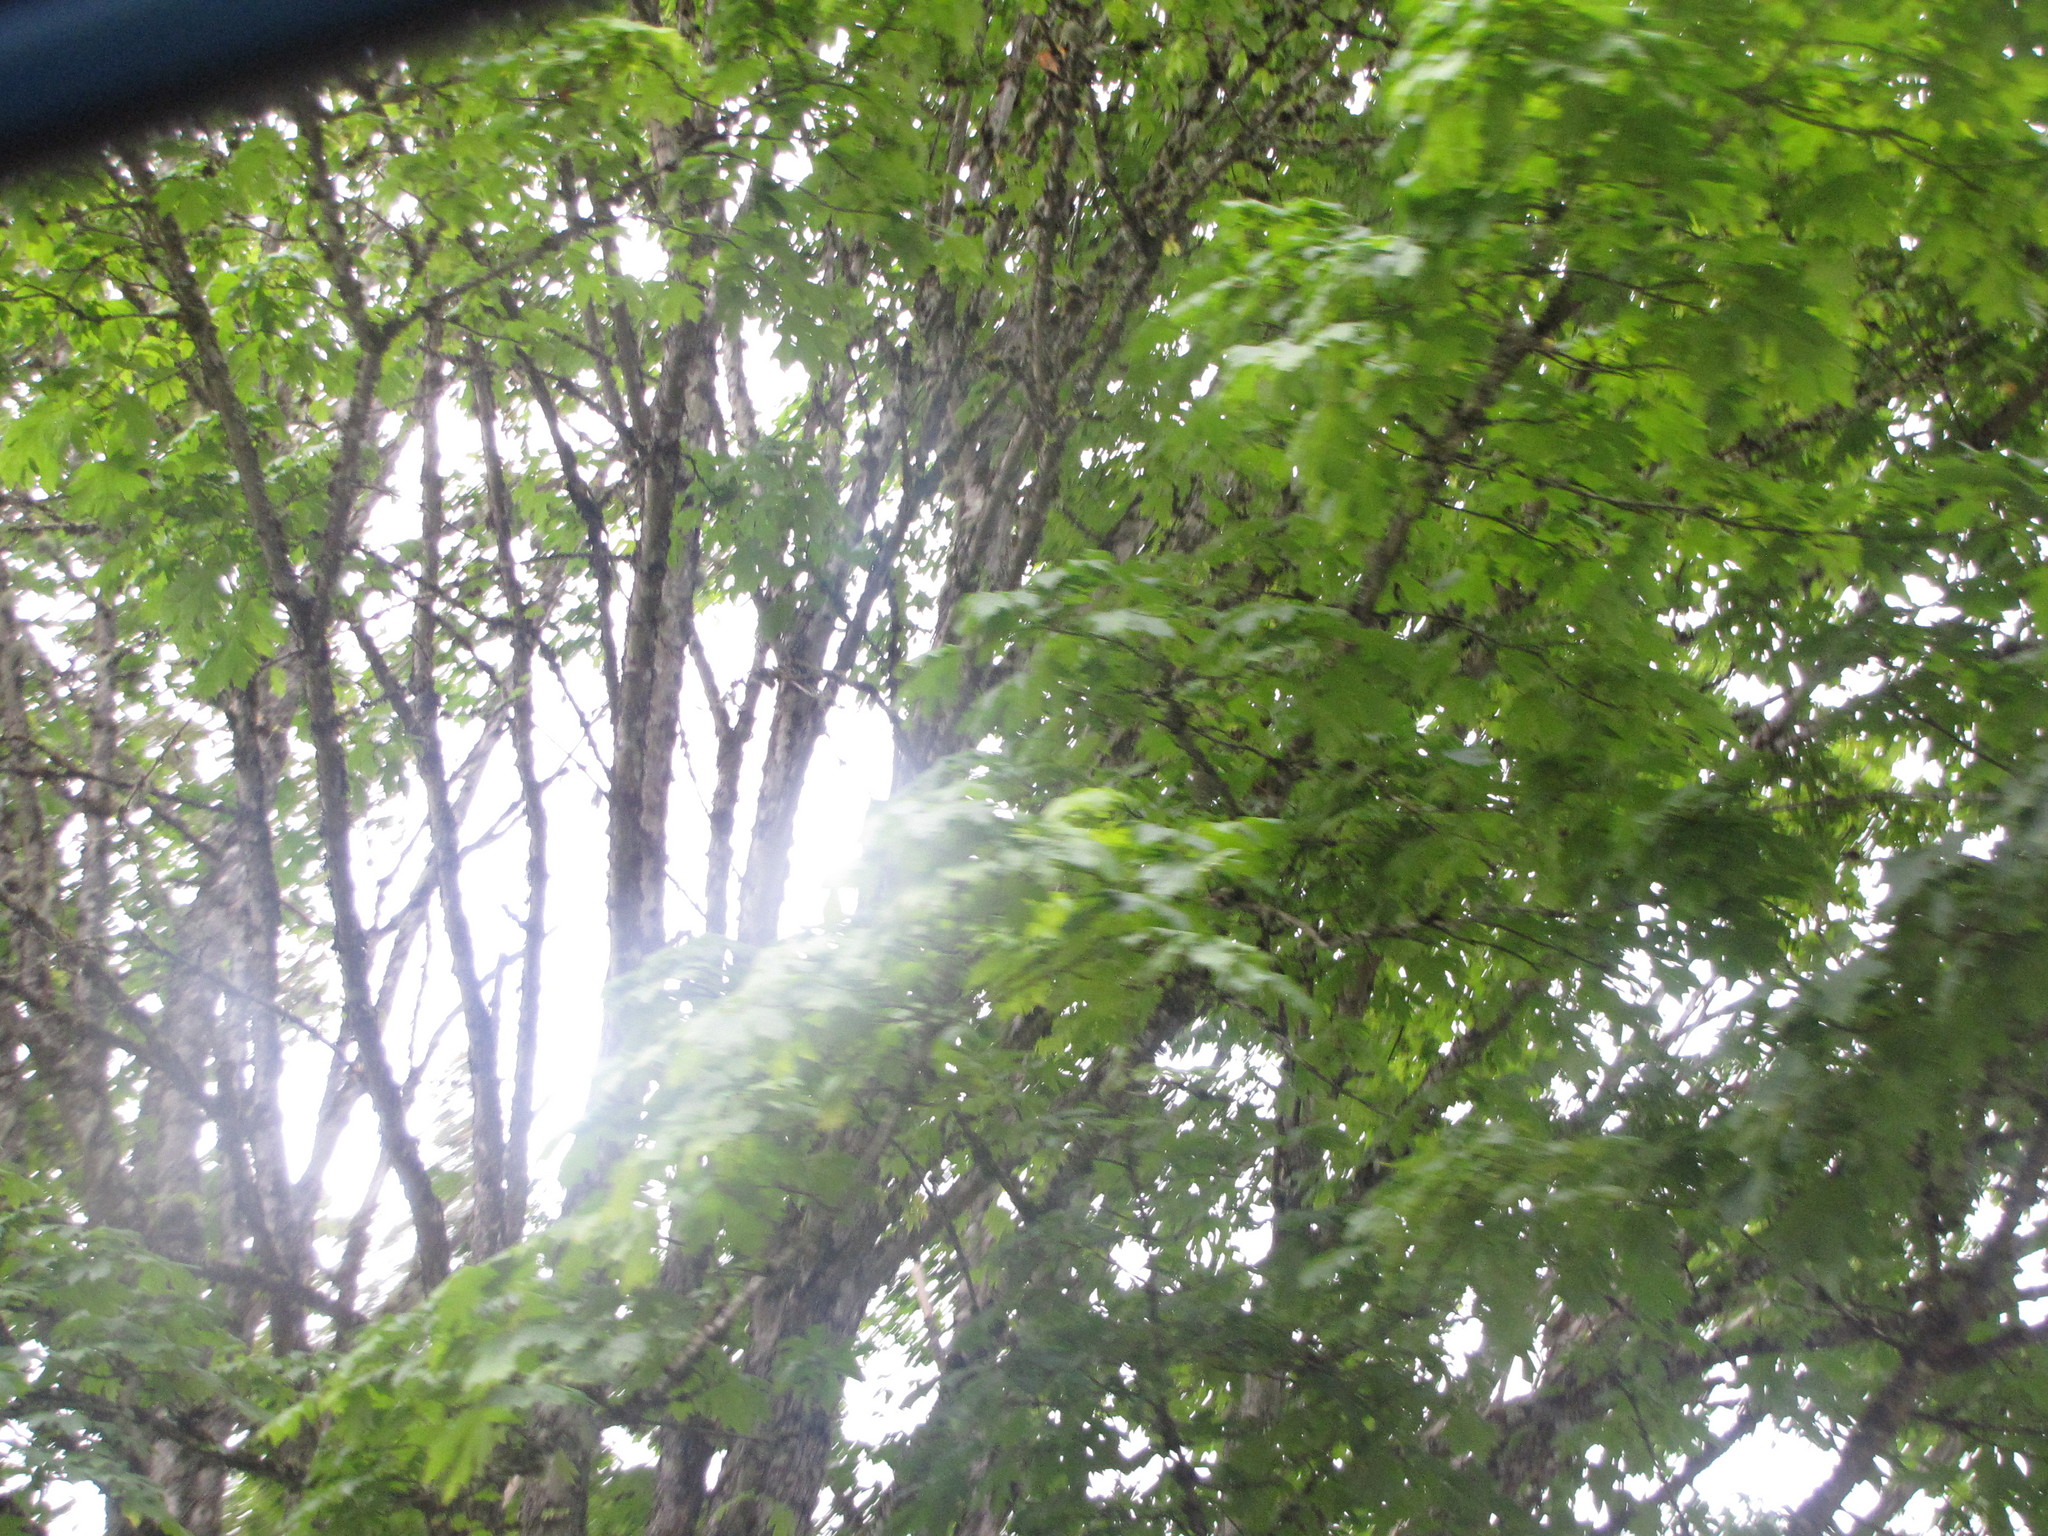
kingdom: Plantae
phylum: Tracheophyta
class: Magnoliopsida
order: Sapindales
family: Sapindaceae
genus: Acer
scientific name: Acer macrophyllum
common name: Oregon maple
